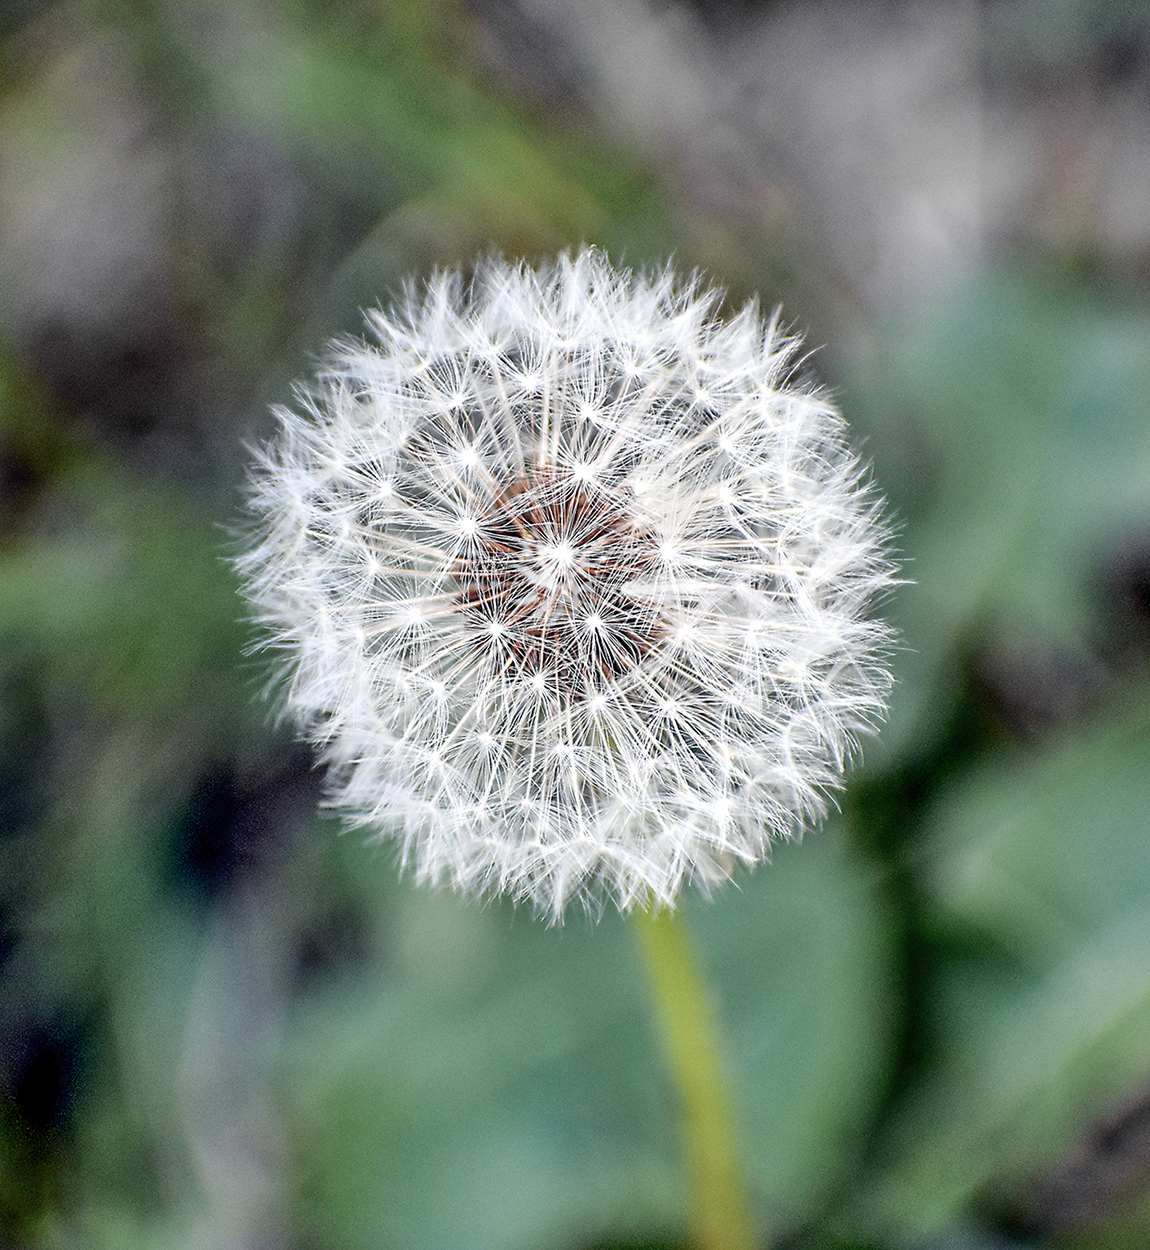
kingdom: Plantae
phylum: Tracheophyta
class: Magnoliopsida
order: Asterales
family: Asteraceae
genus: Taraxacum
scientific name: Taraxacum officinale
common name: Common dandelion
